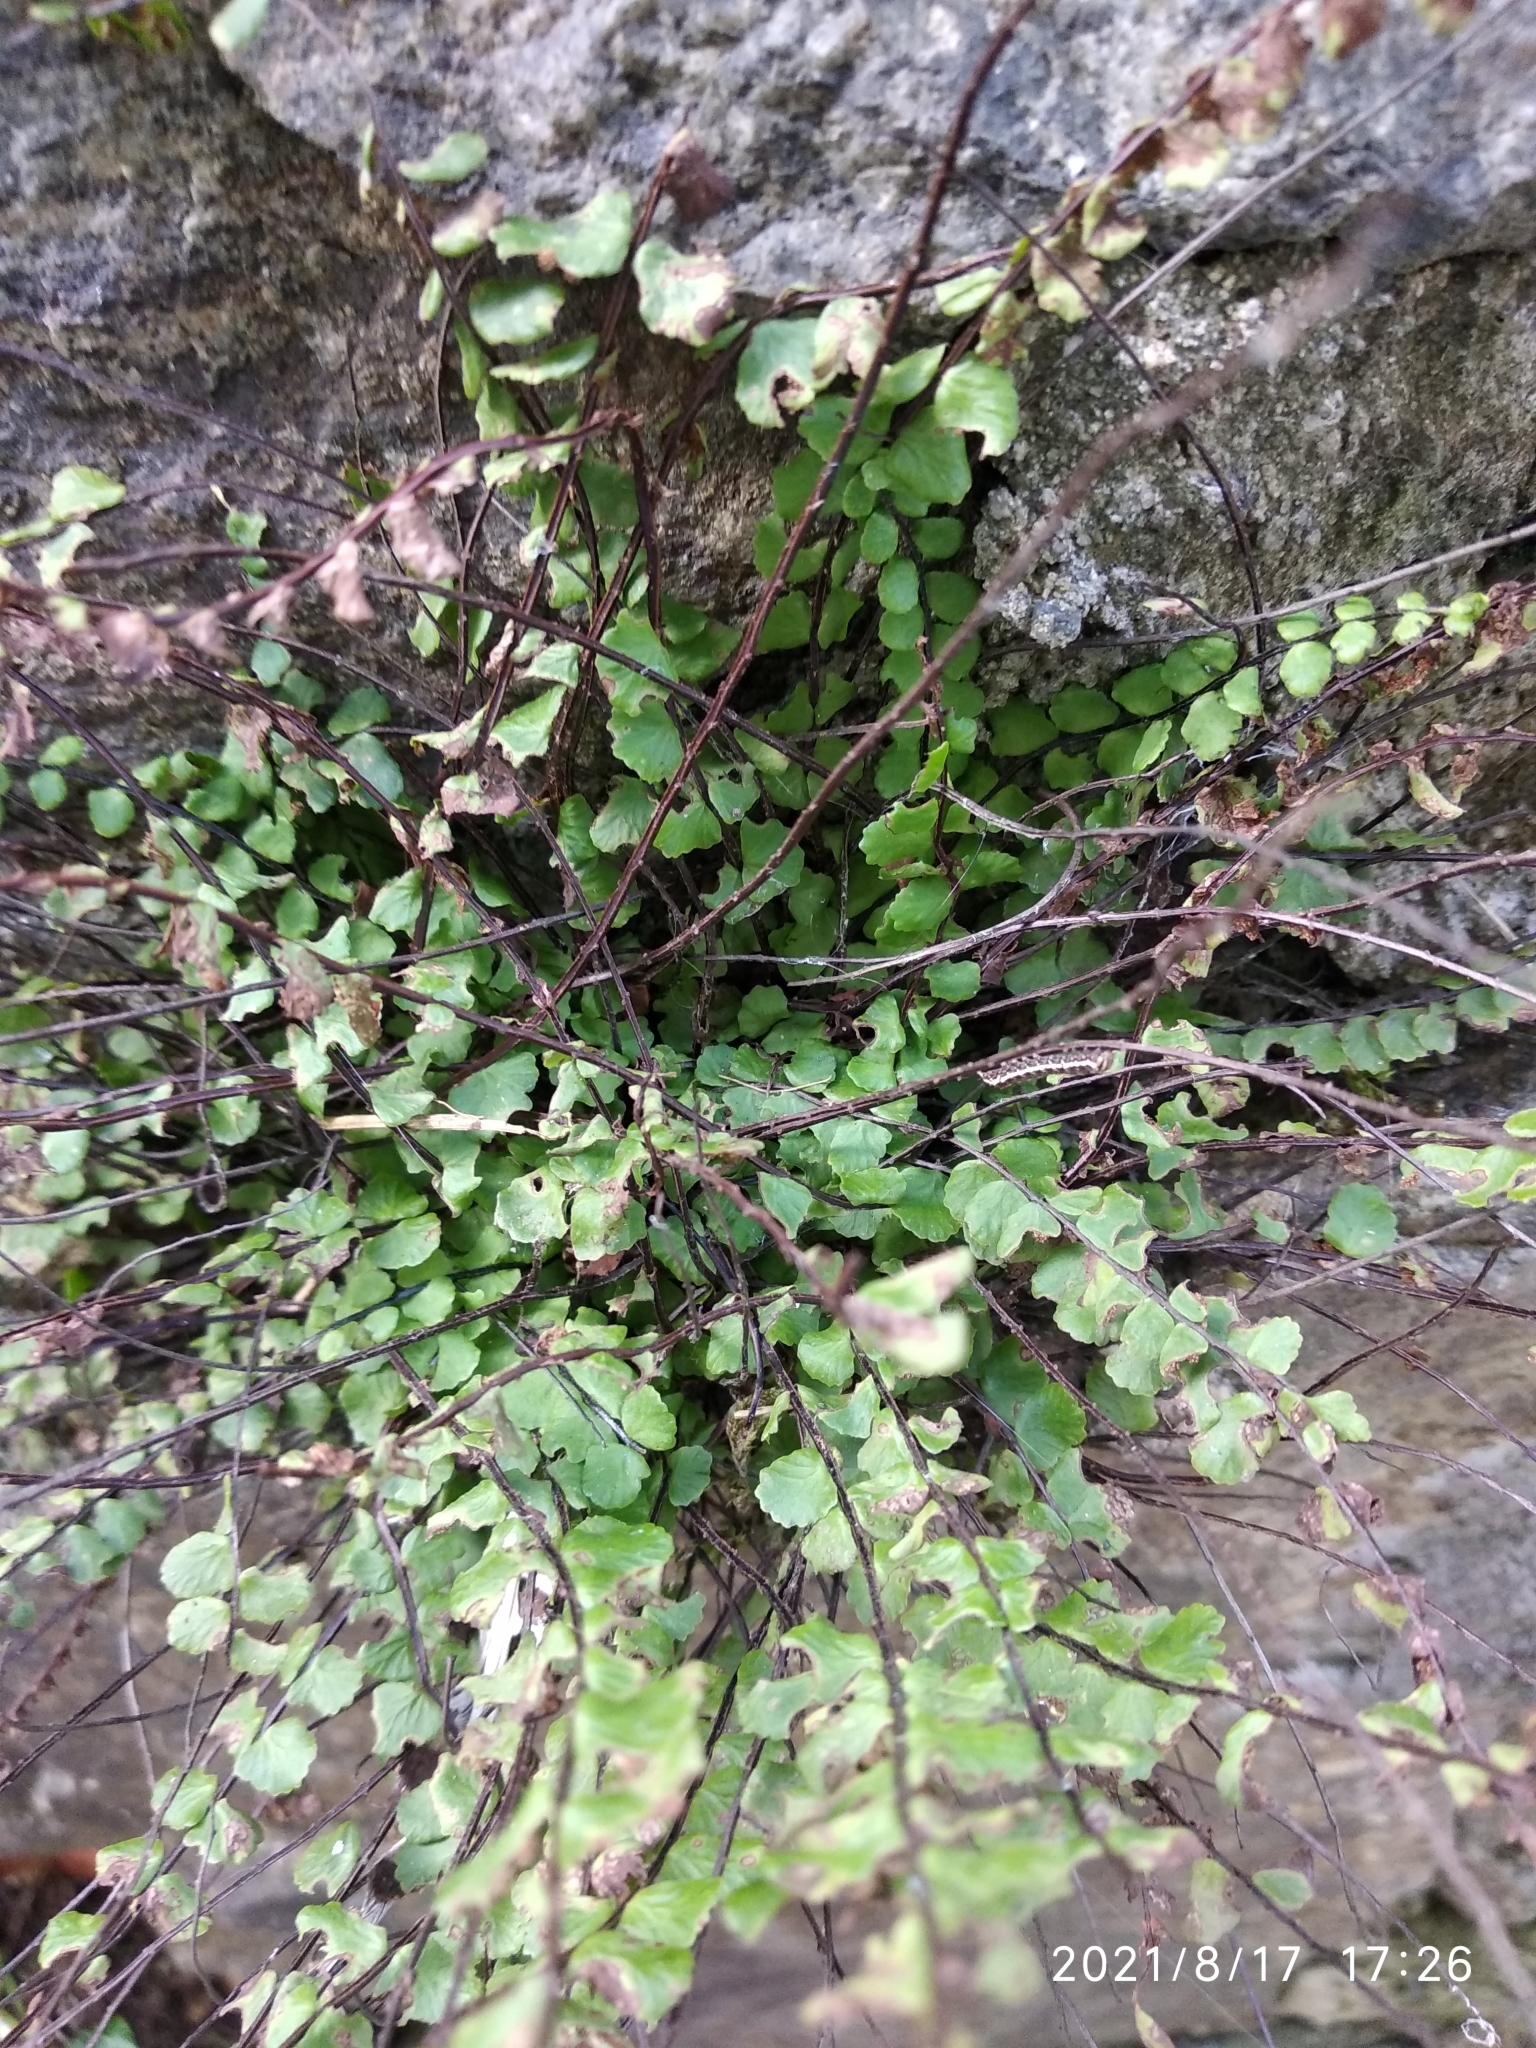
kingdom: Plantae
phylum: Tracheophyta
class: Polypodiopsida
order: Polypodiales
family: Aspleniaceae
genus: Asplenium
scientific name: Asplenium trichomanes
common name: Maidenhair spleenwort
